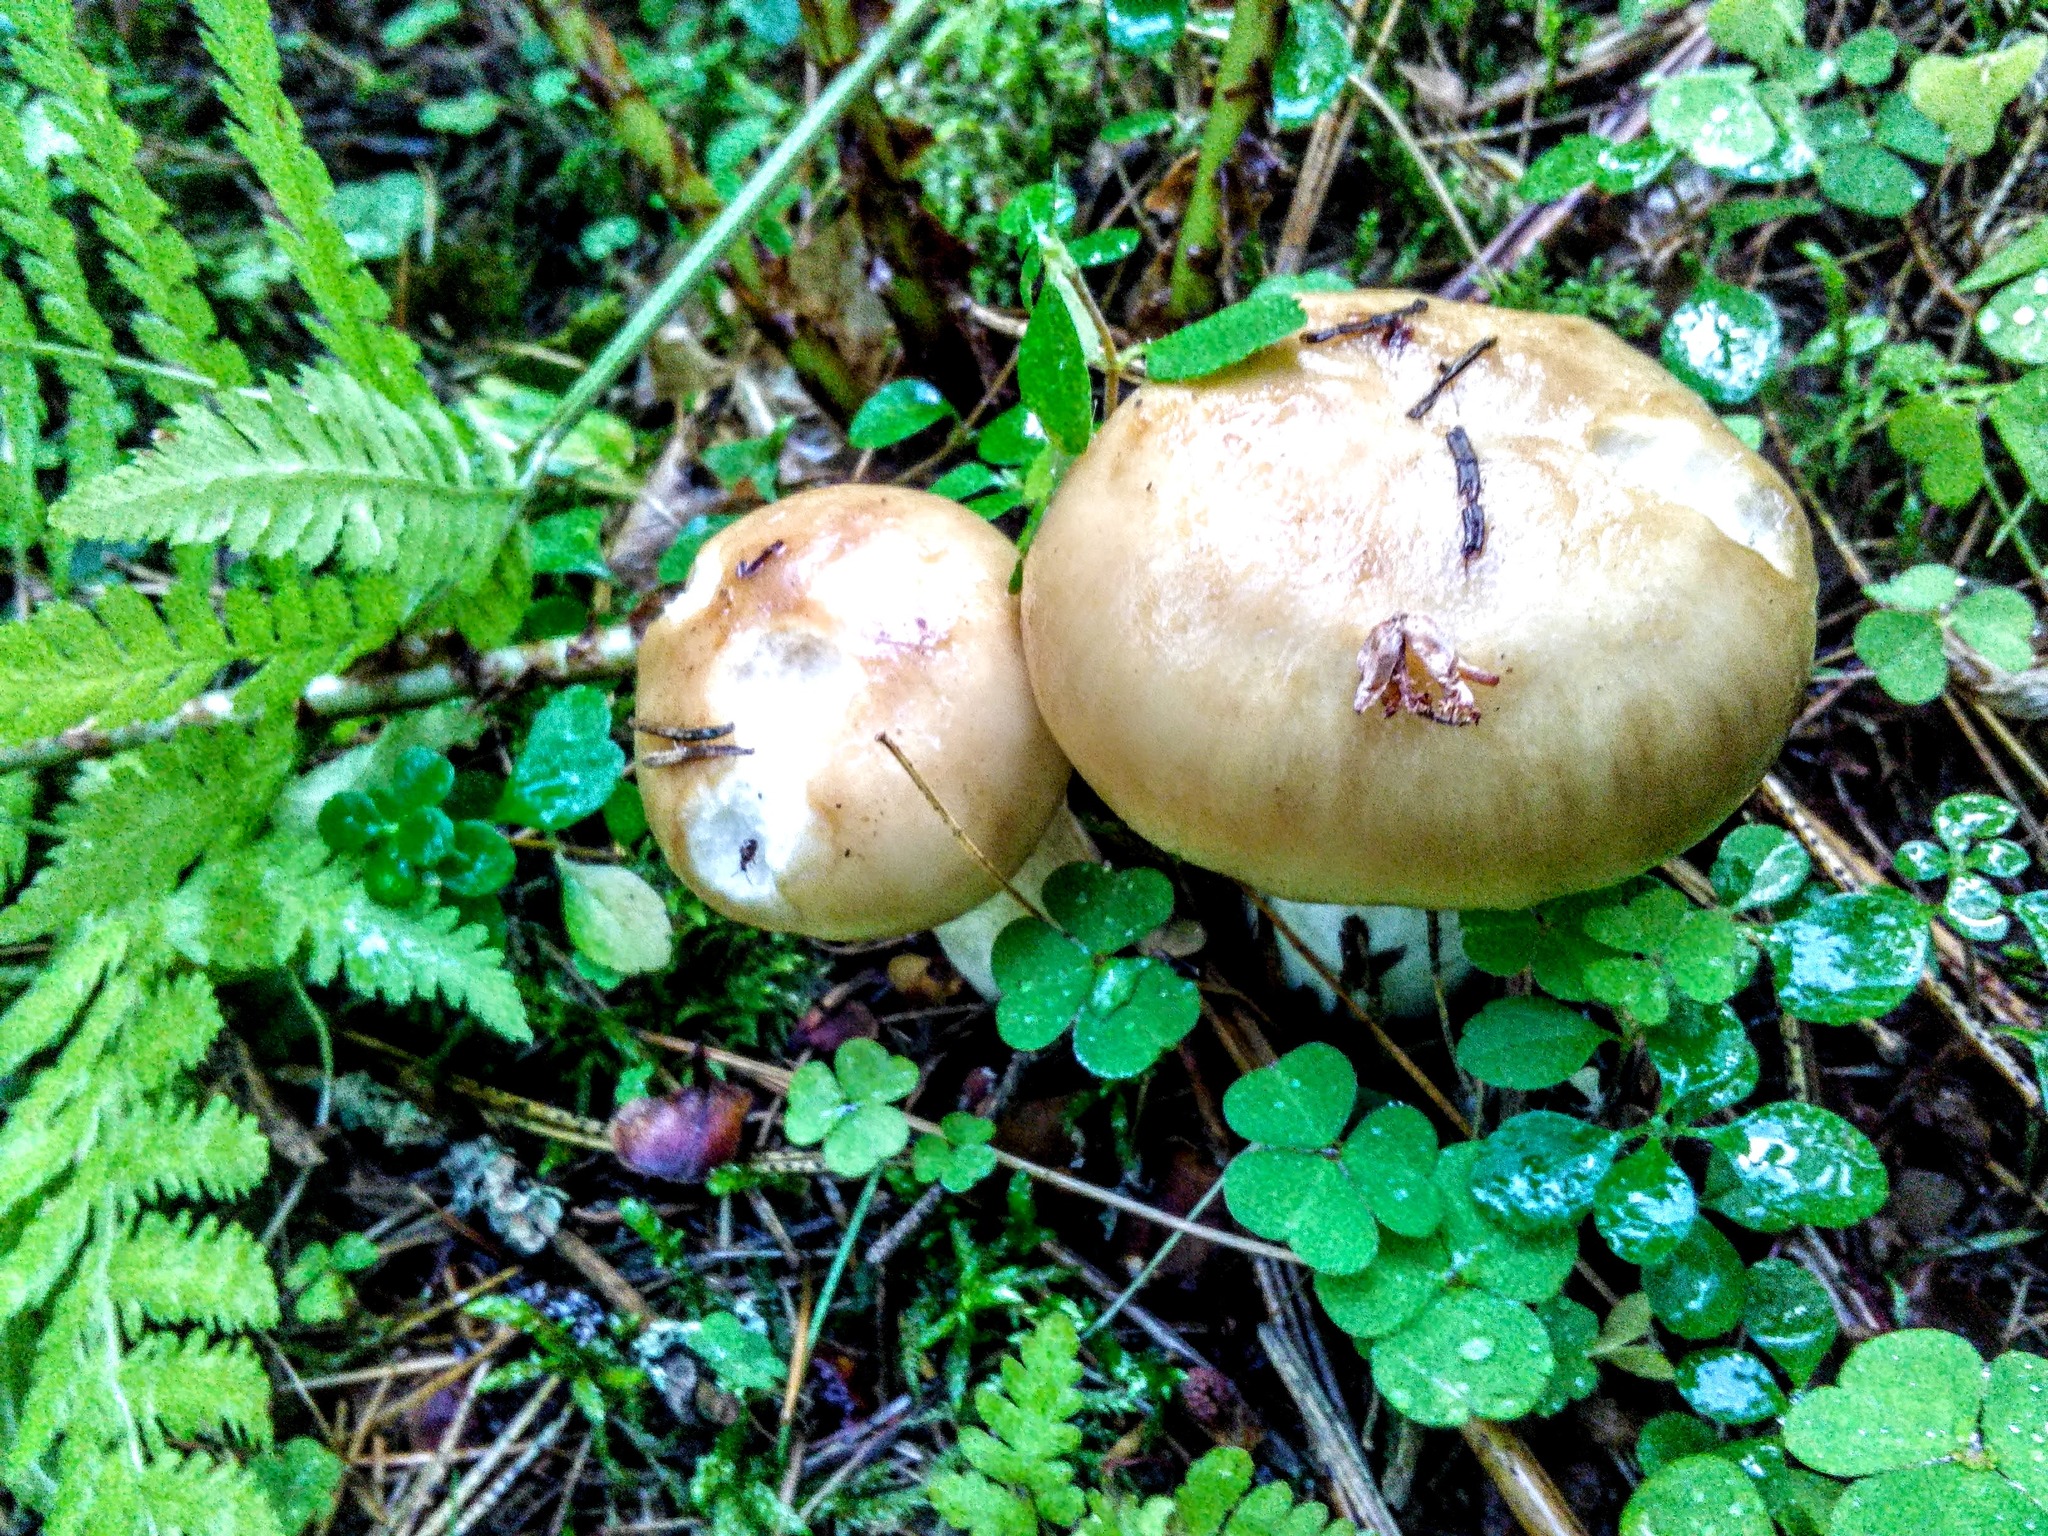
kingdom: Fungi
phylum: Basidiomycota
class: Agaricomycetes
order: Russulales
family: Russulaceae
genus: Russula
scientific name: Russula foetens
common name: Foetid russula
